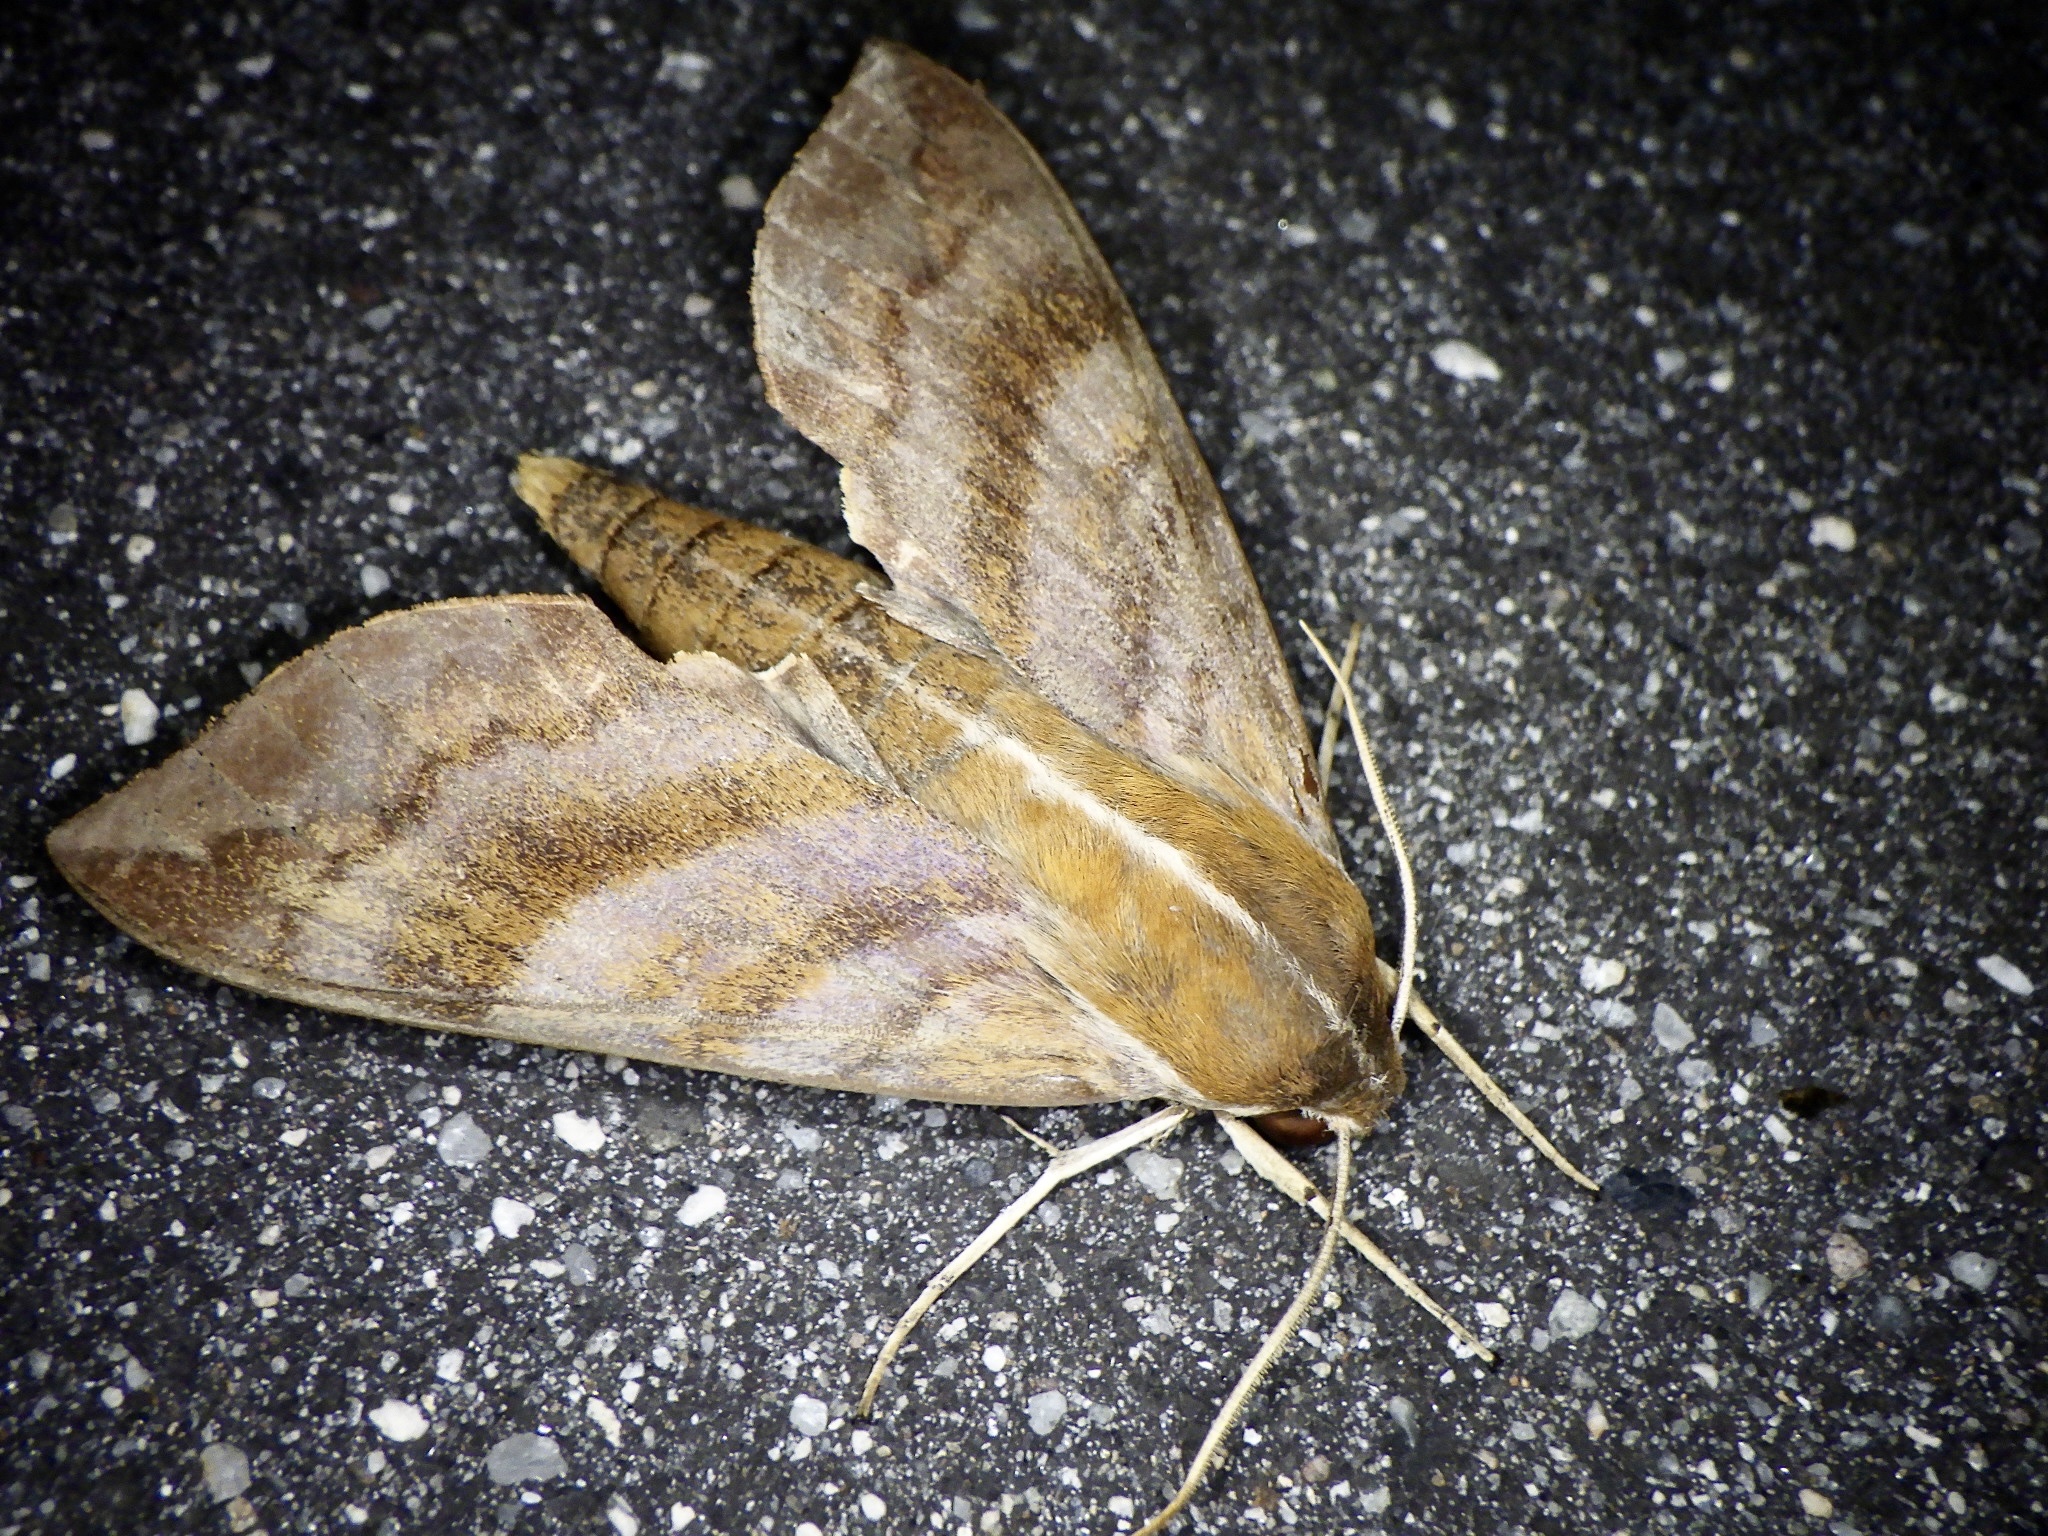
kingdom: Animalia
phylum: Arthropoda
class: Insecta
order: Lepidoptera
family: Sphingidae
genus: Ampelophaga
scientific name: Ampelophaga rubiginosa
